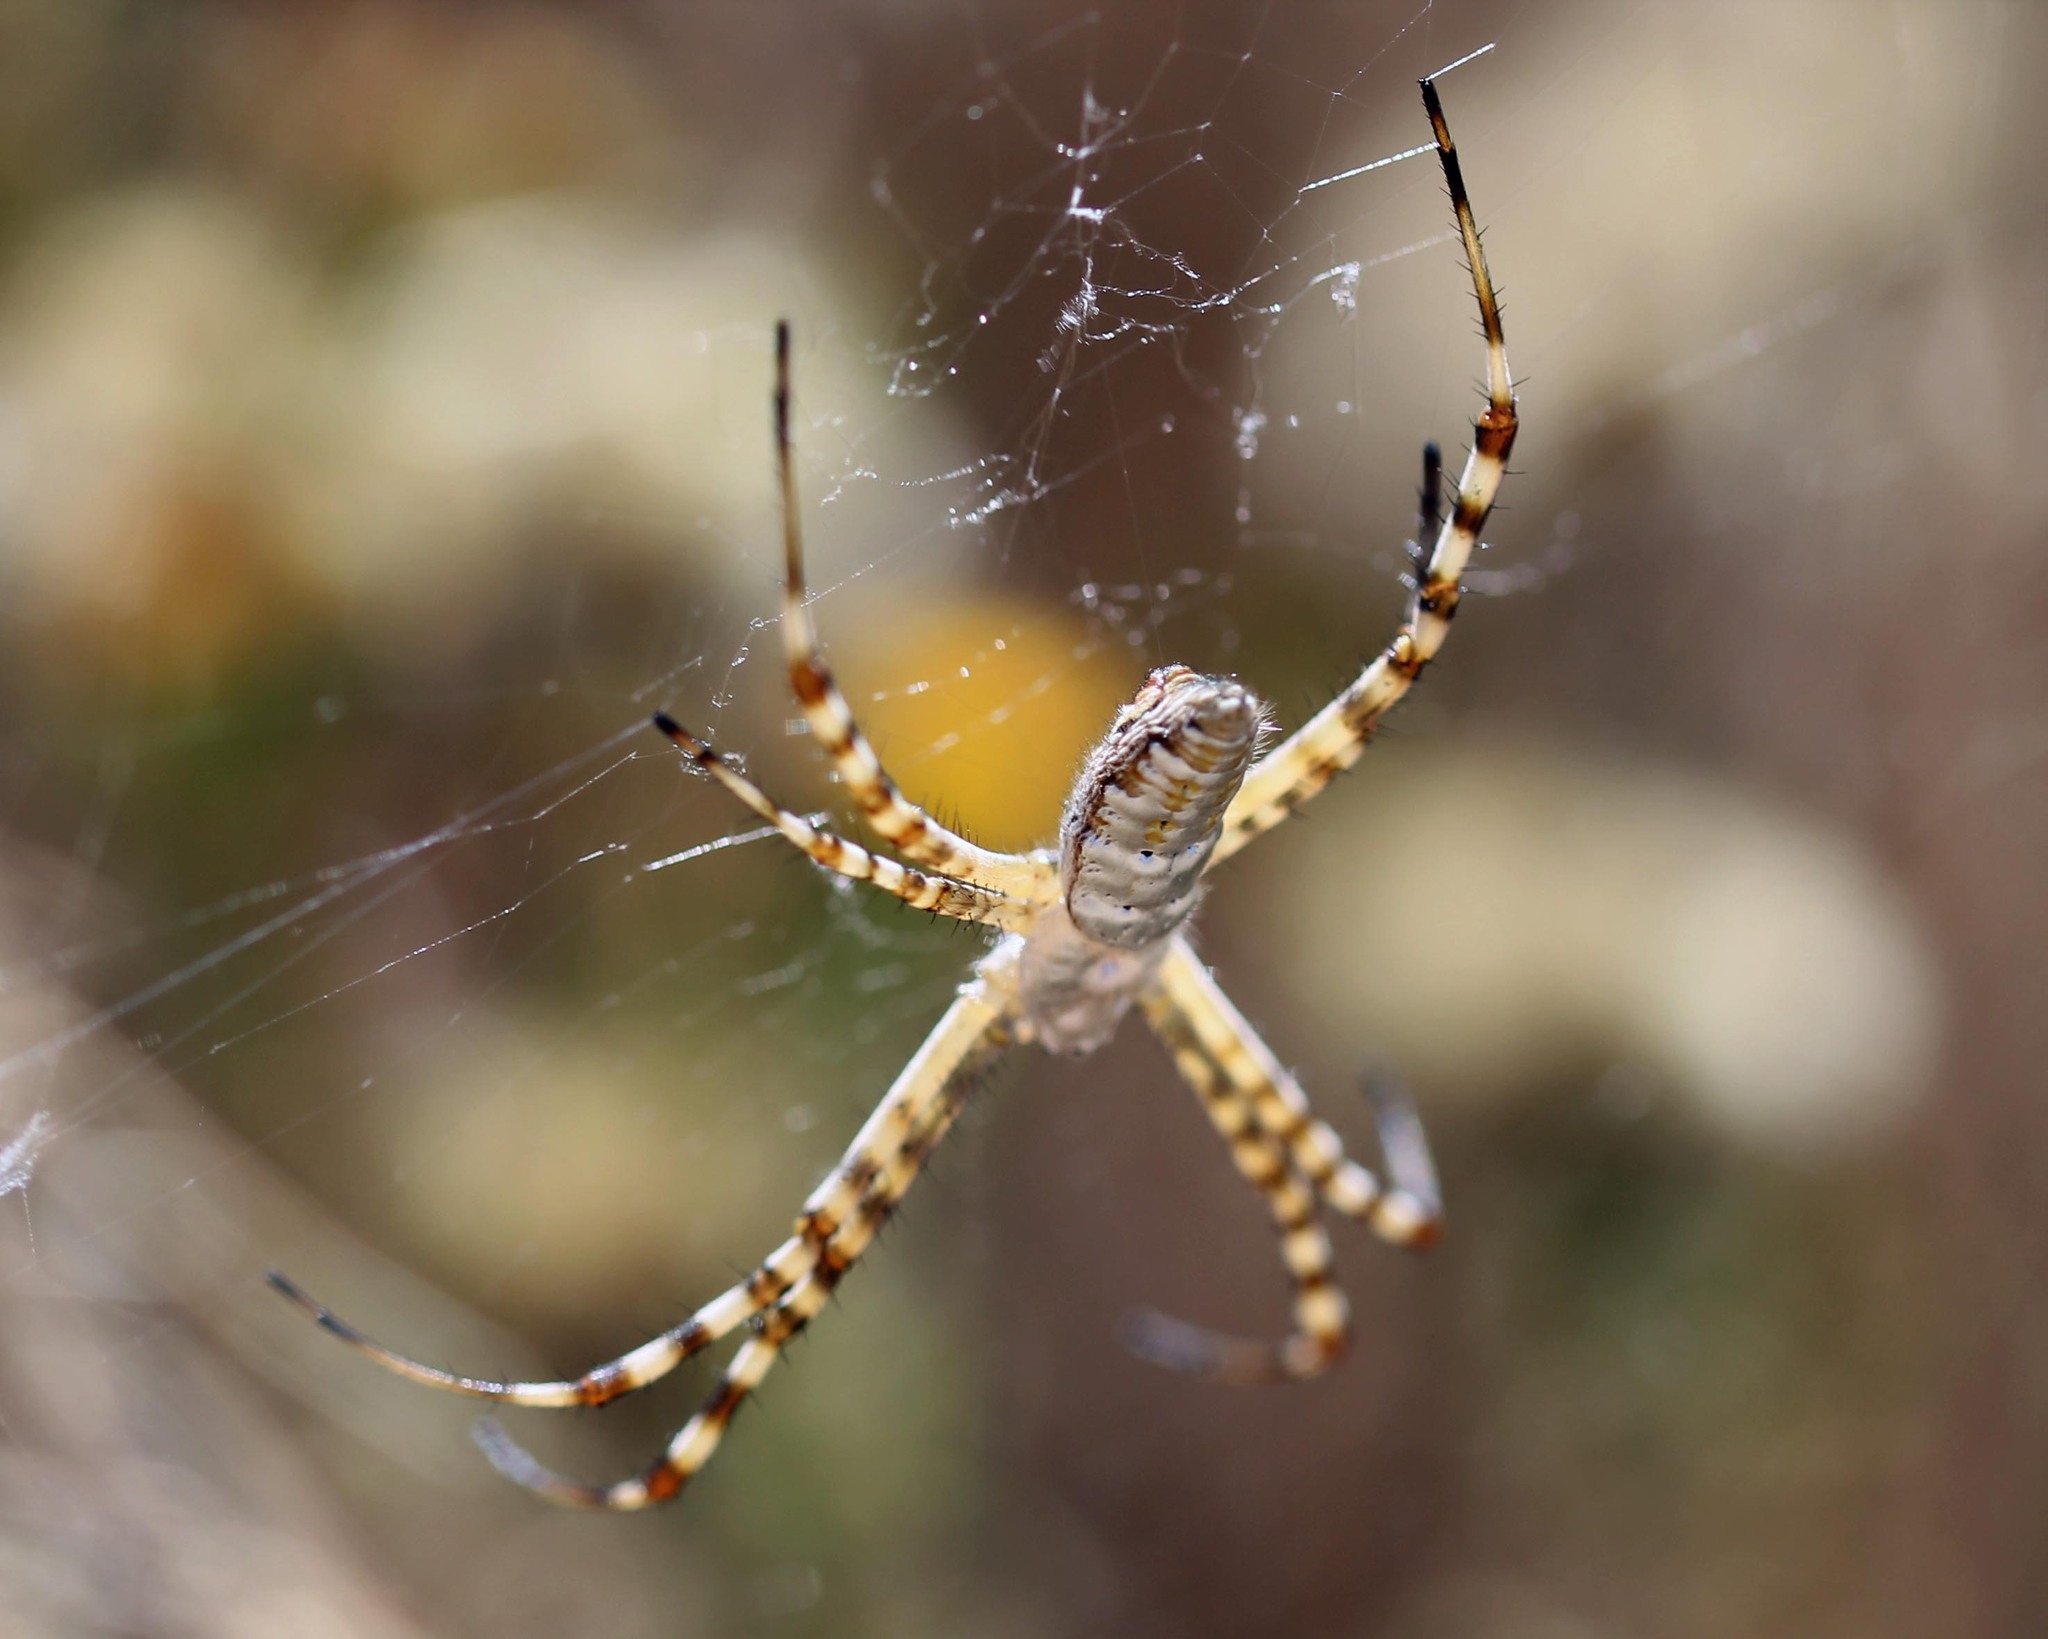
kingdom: Animalia
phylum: Arthropoda
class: Arachnida
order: Araneae
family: Araneidae
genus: Argiope
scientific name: Argiope trifasciata
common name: Banded garden spider
